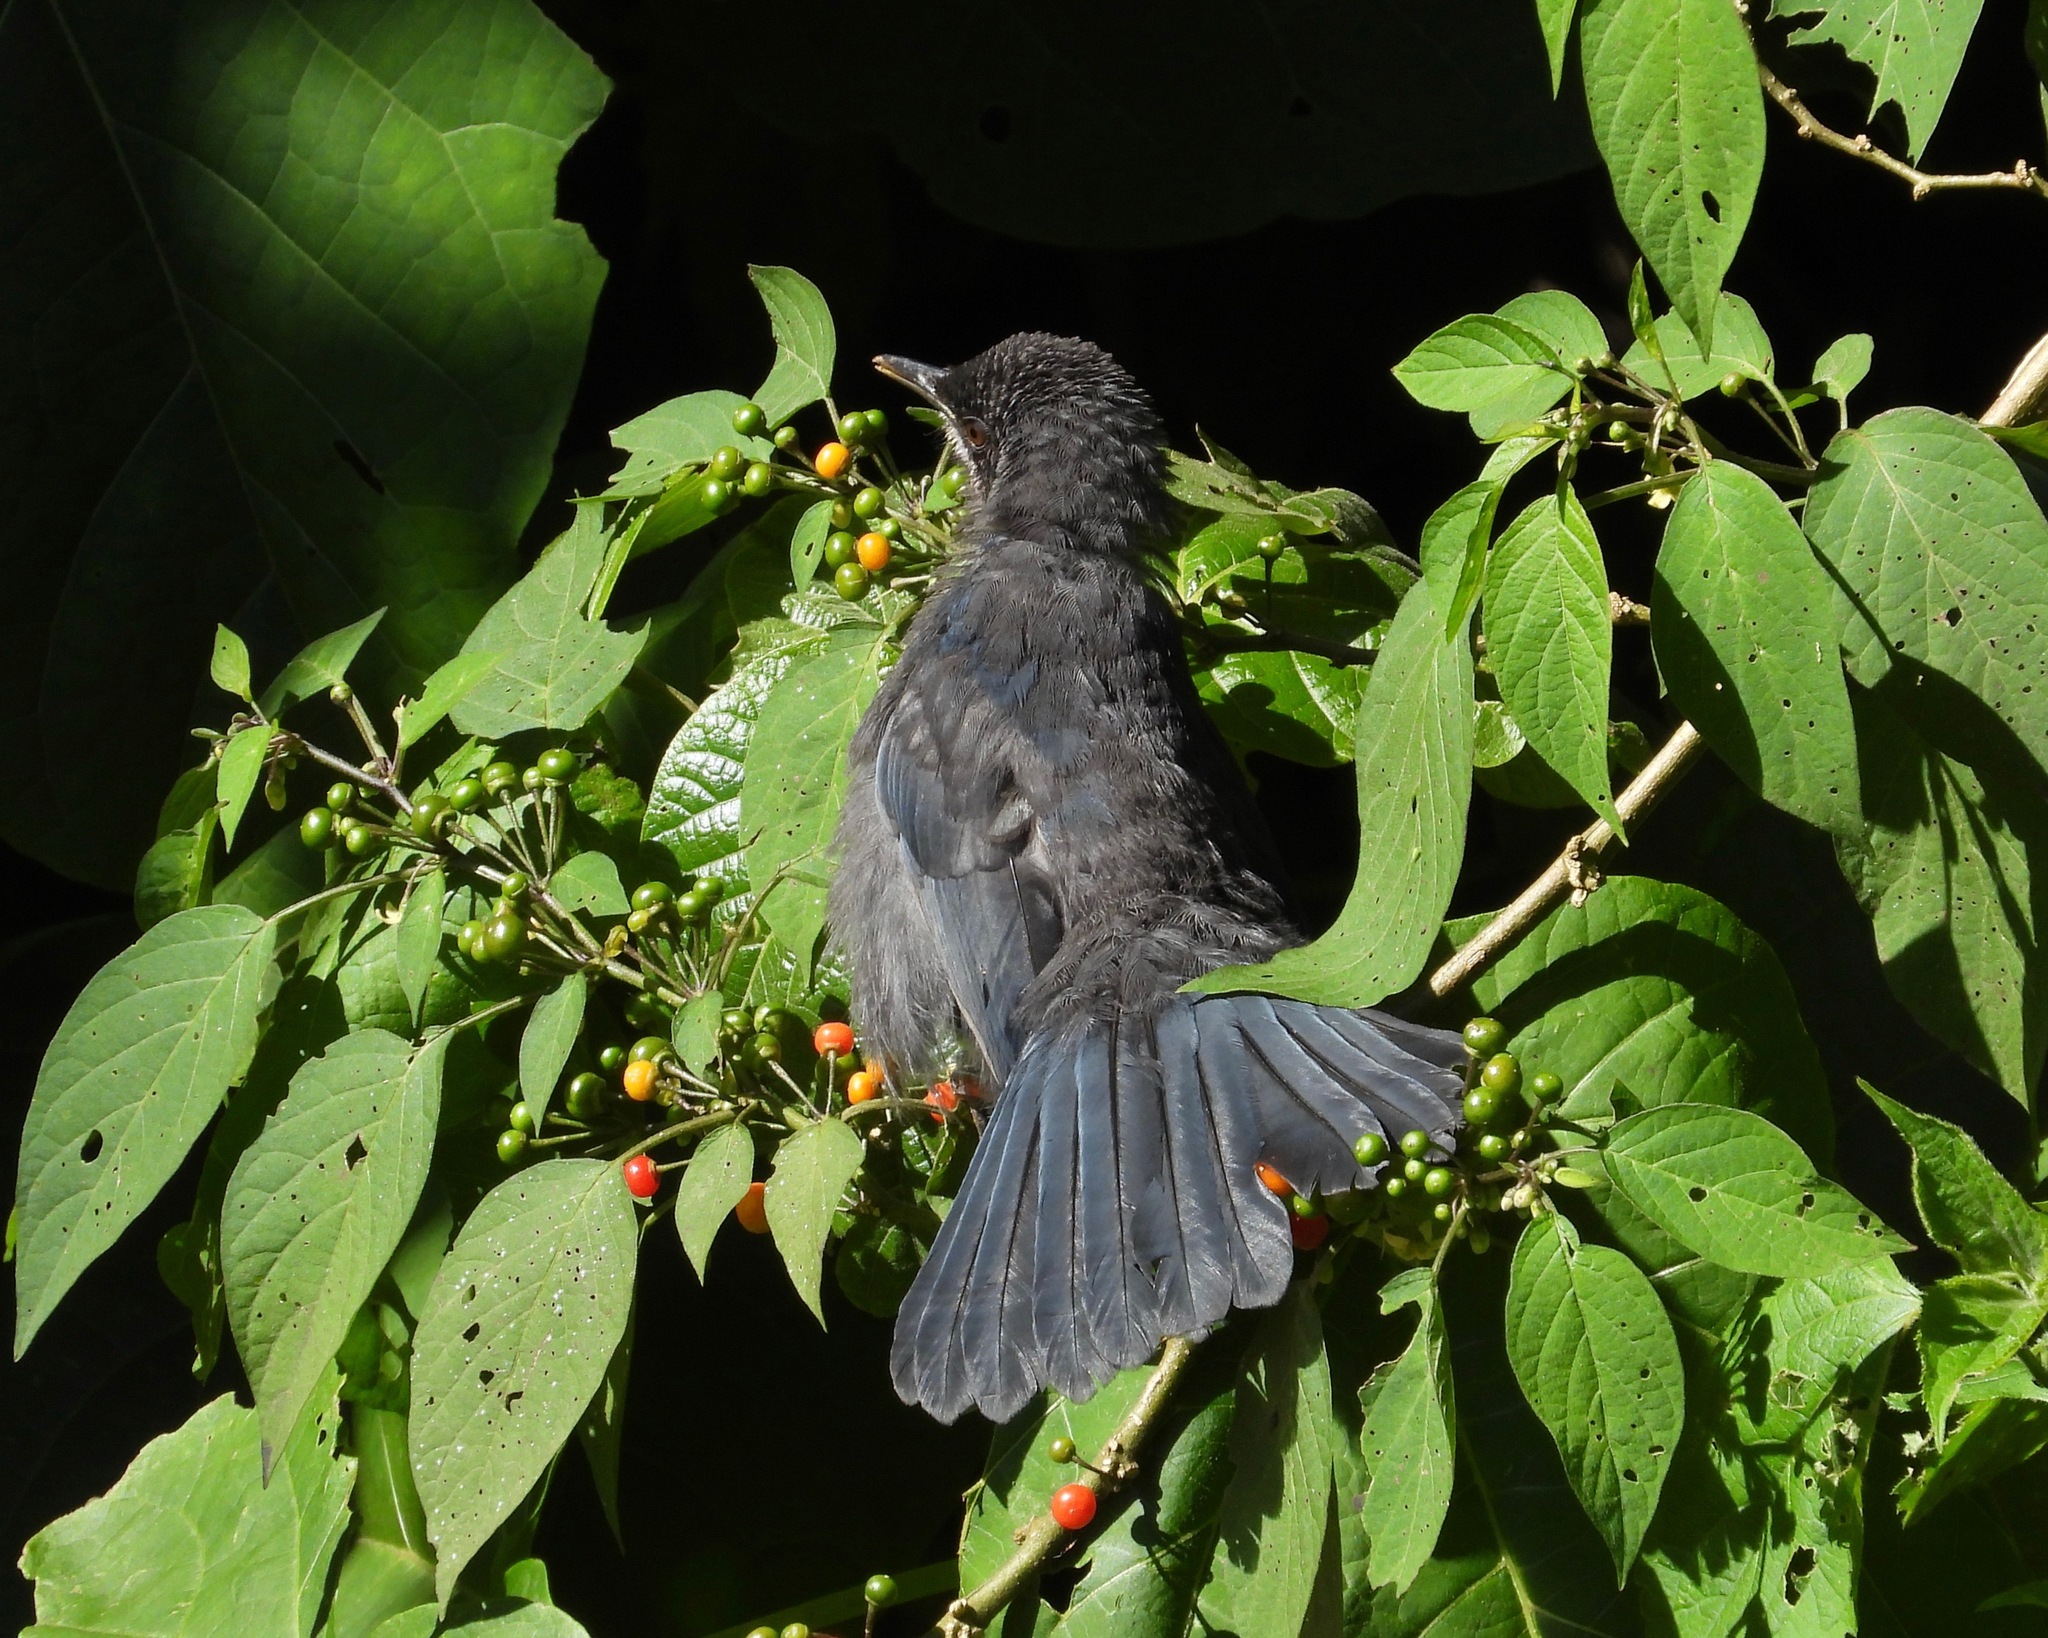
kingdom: Animalia
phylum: Chordata
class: Aves
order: Passeriformes
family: Mimidae
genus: Melanotis
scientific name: Melanotis hypoleucus
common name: Blue-and-white mockingbird
